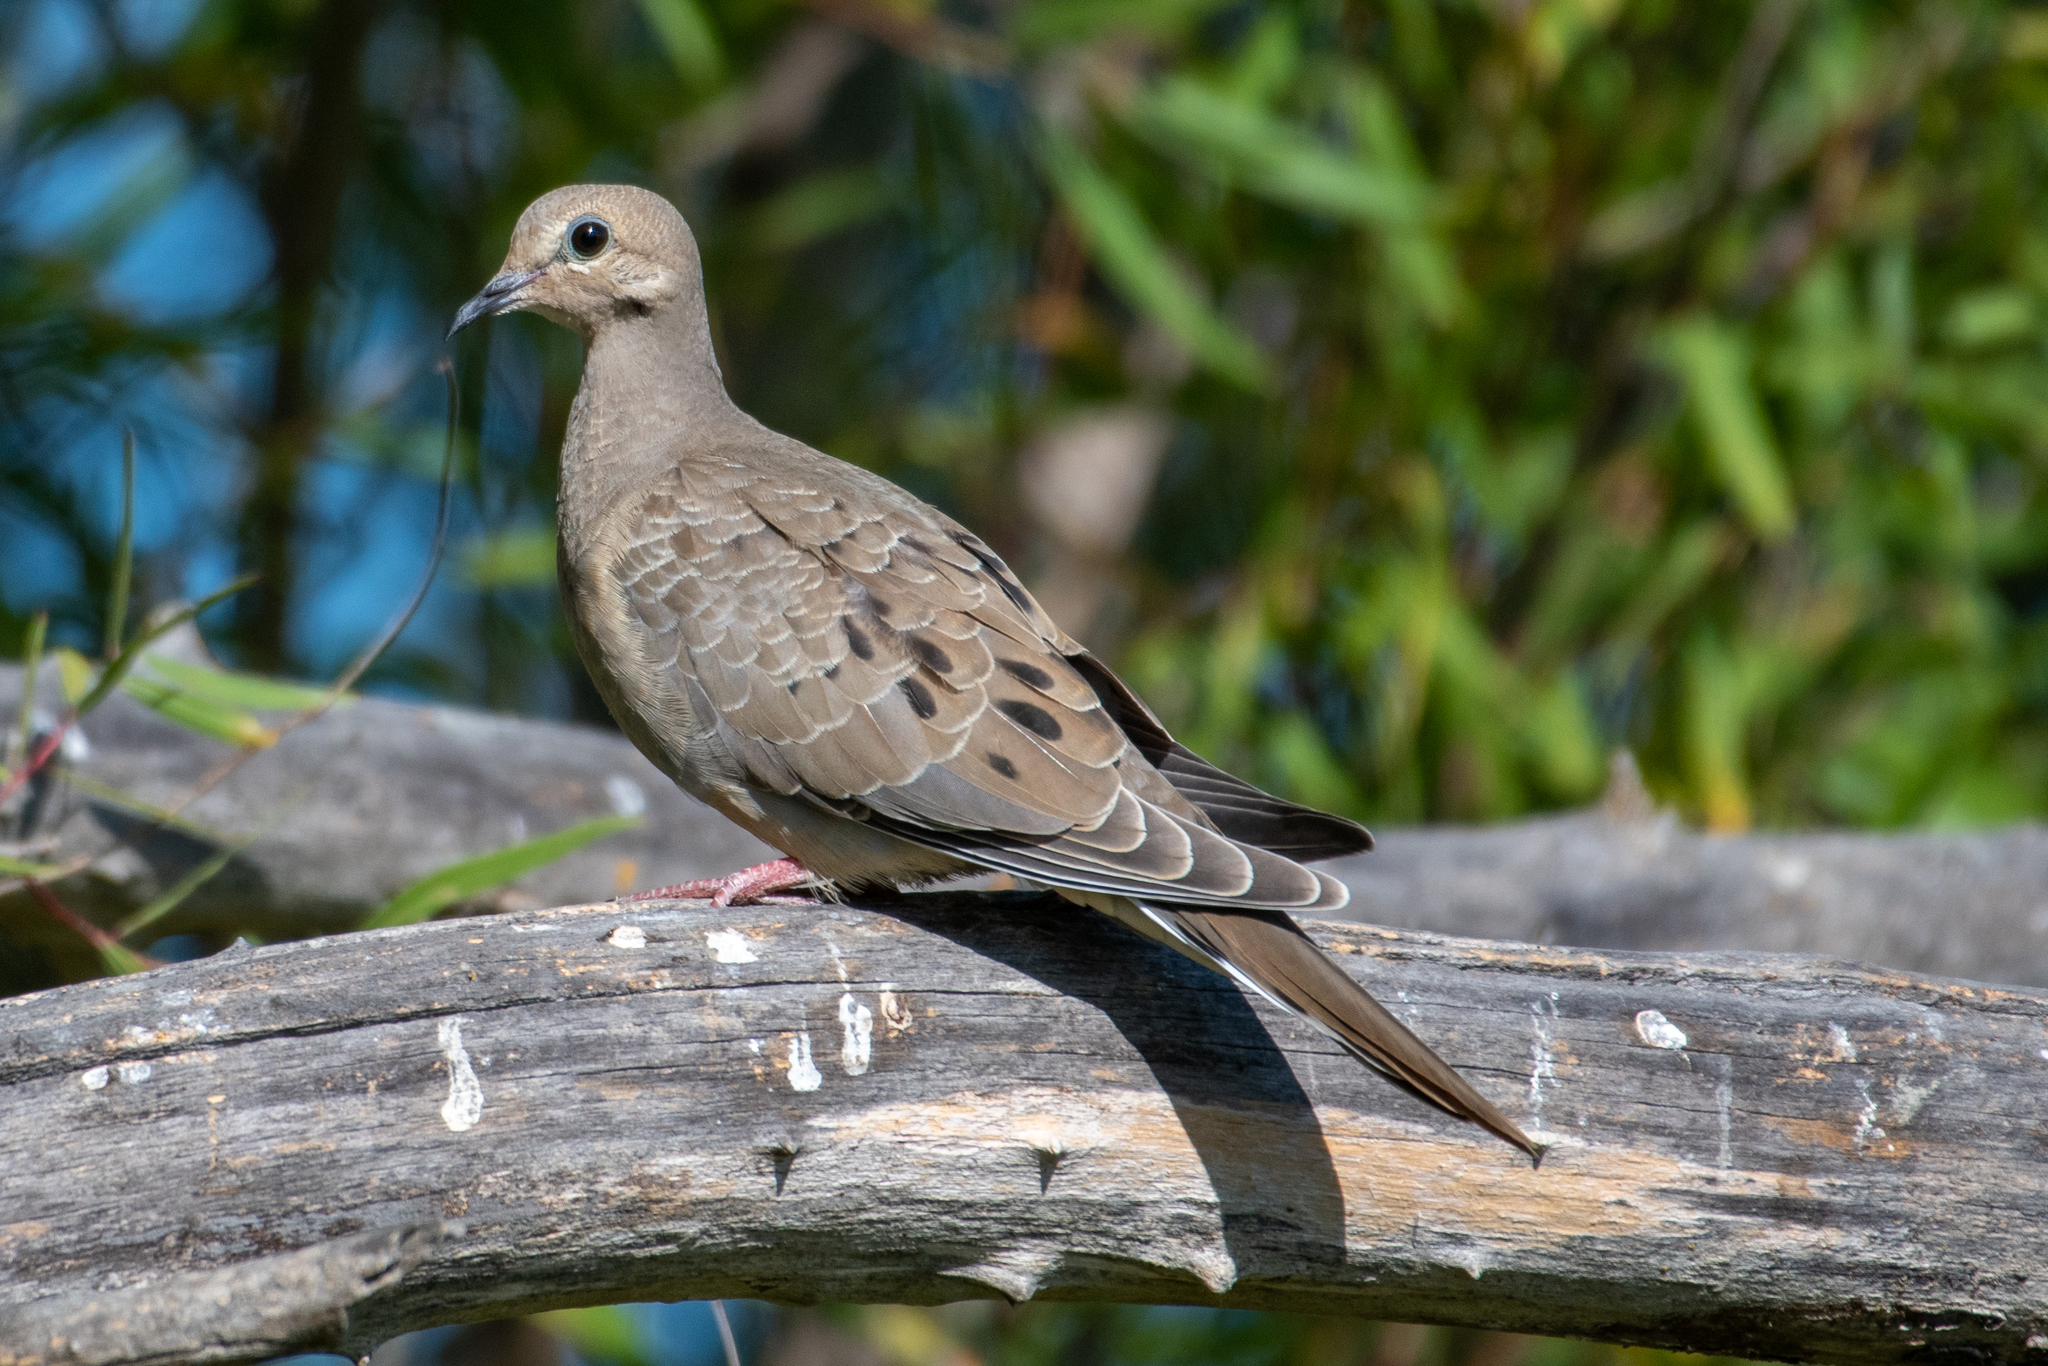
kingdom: Animalia
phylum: Chordata
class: Aves
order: Columbiformes
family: Columbidae
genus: Zenaida
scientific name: Zenaida macroura
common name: Mourning dove
